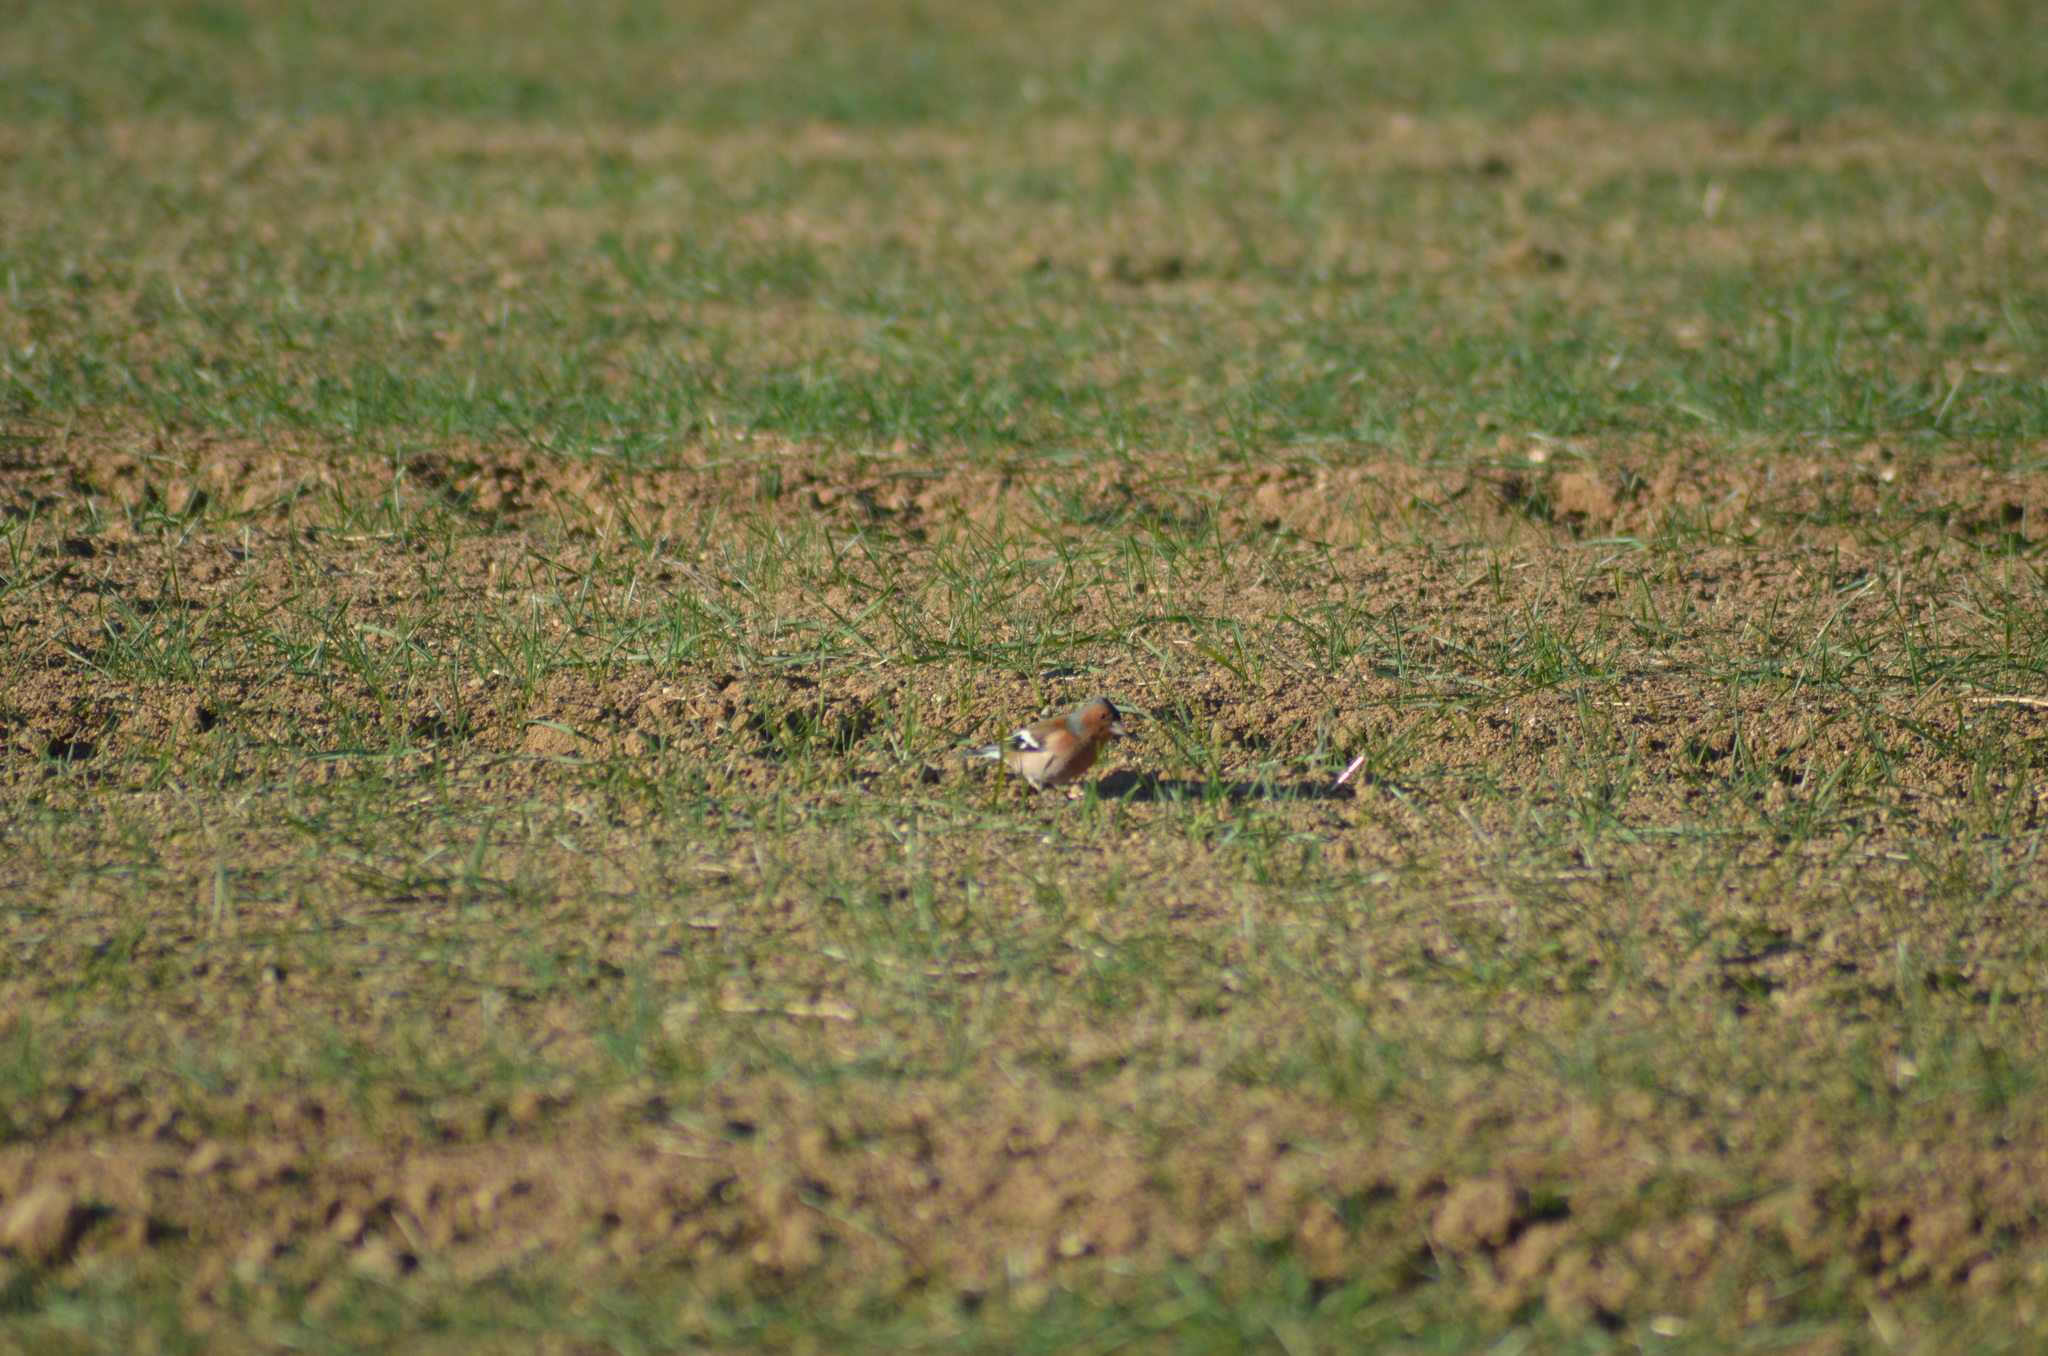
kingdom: Animalia
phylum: Chordata
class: Aves
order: Passeriformes
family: Fringillidae
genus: Fringilla
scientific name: Fringilla coelebs
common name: Common chaffinch
